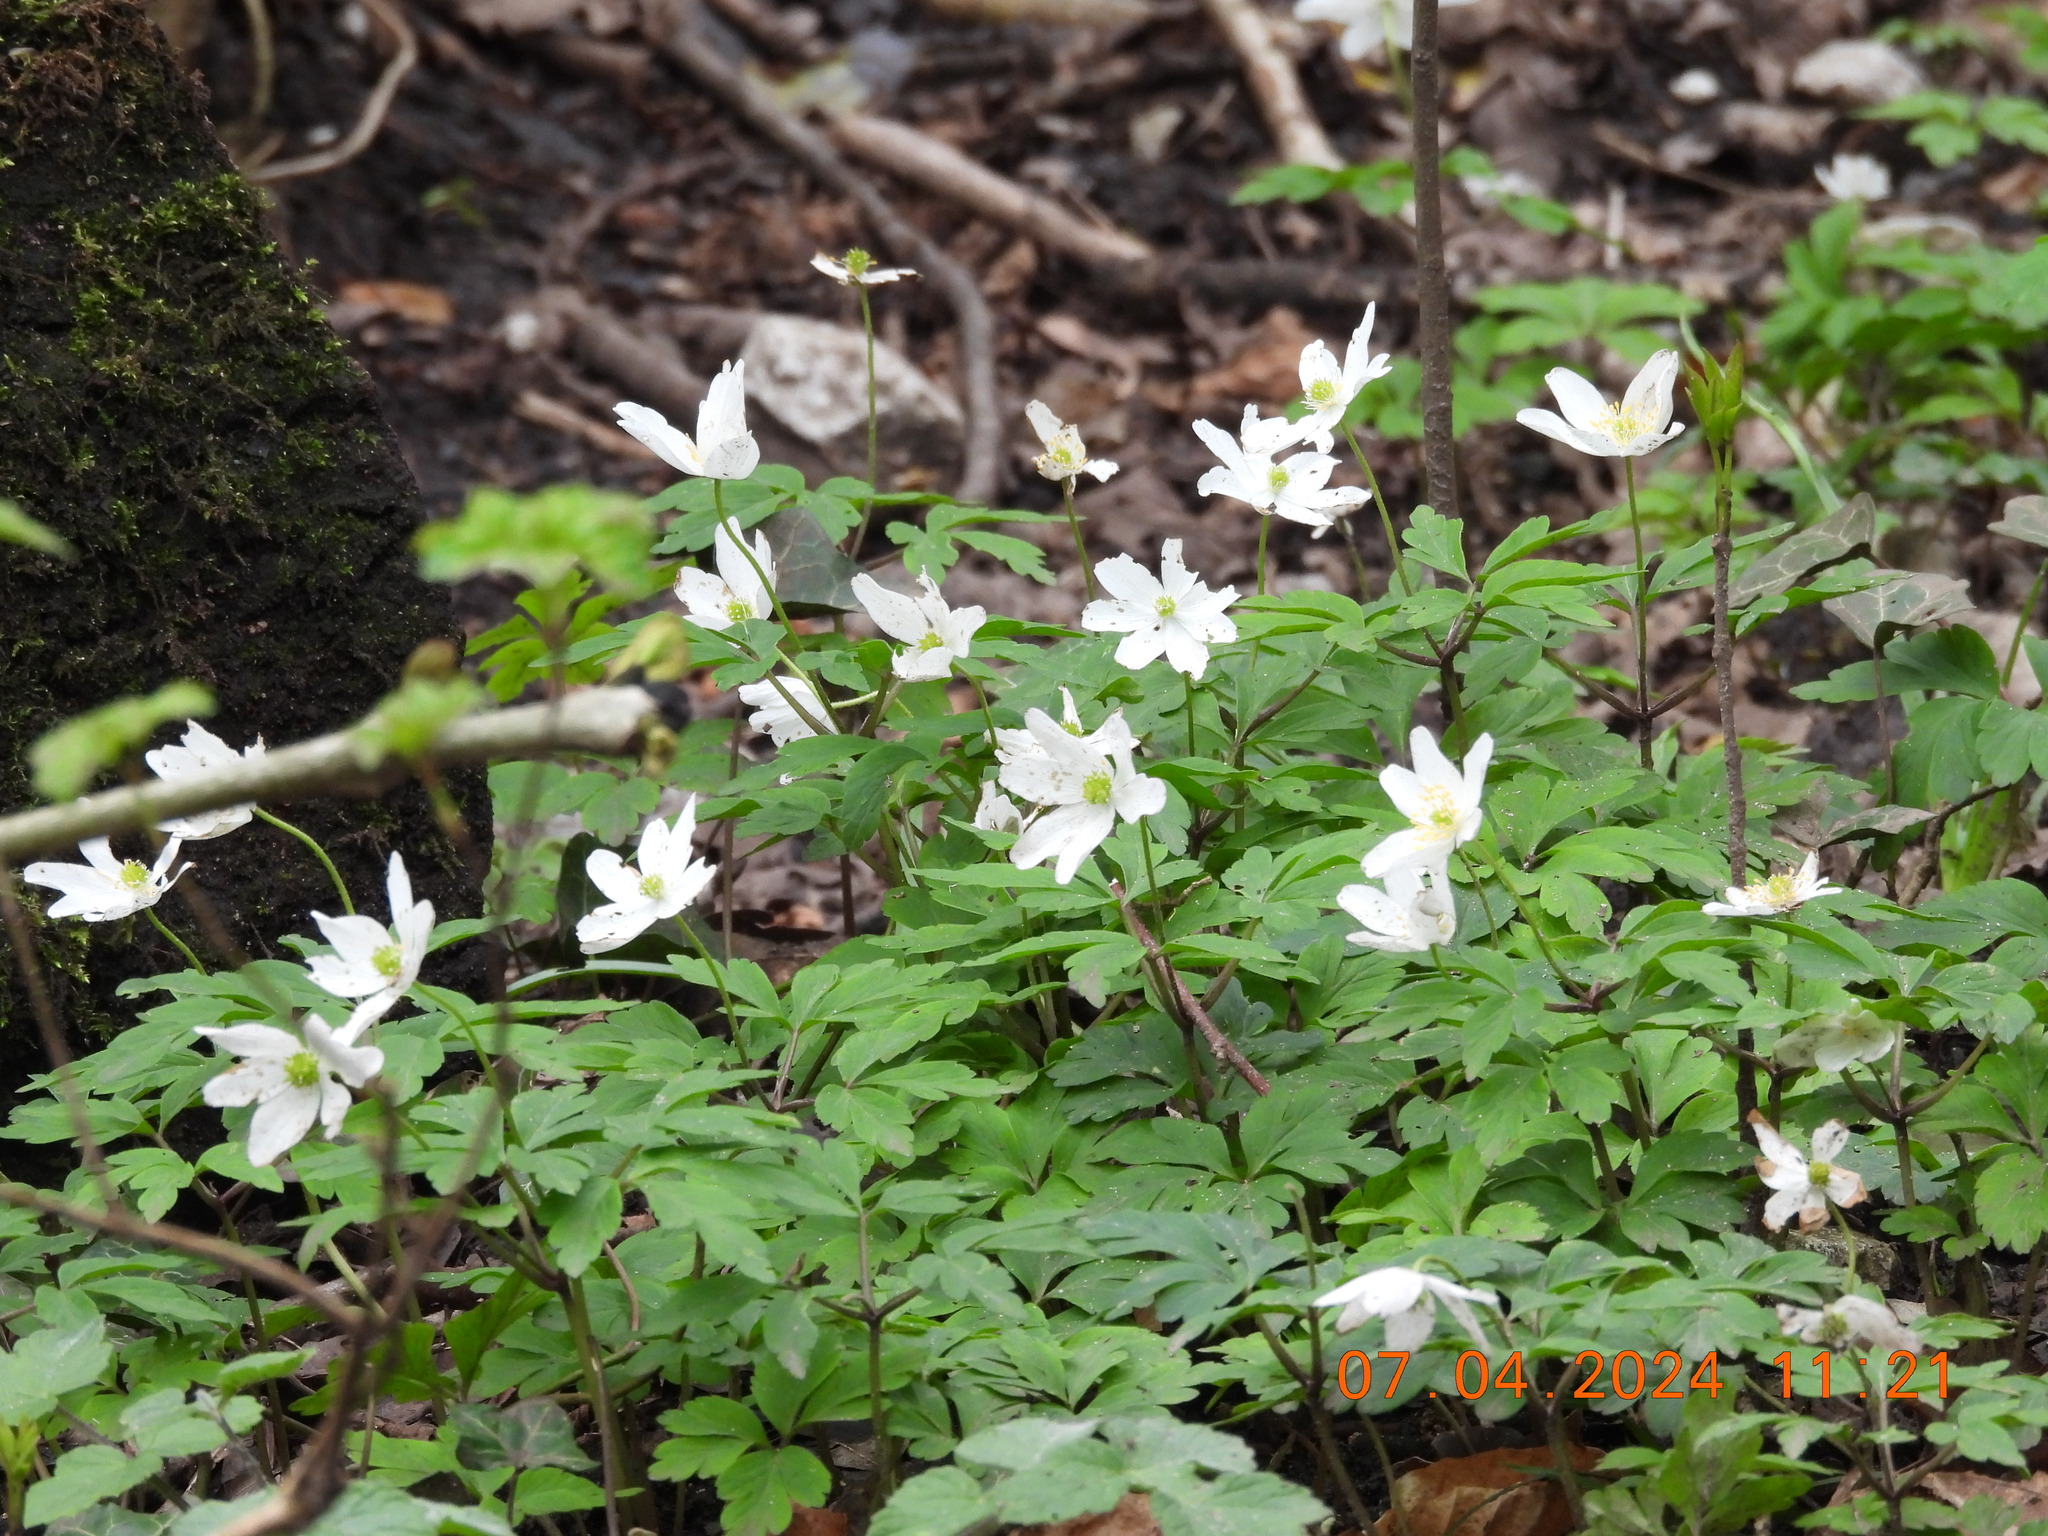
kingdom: Plantae
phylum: Tracheophyta
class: Magnoliopsida
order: Ranunculales
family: Ranunculaceae
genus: Anemone
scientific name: Anemone nemorosa
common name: Wood anemone
